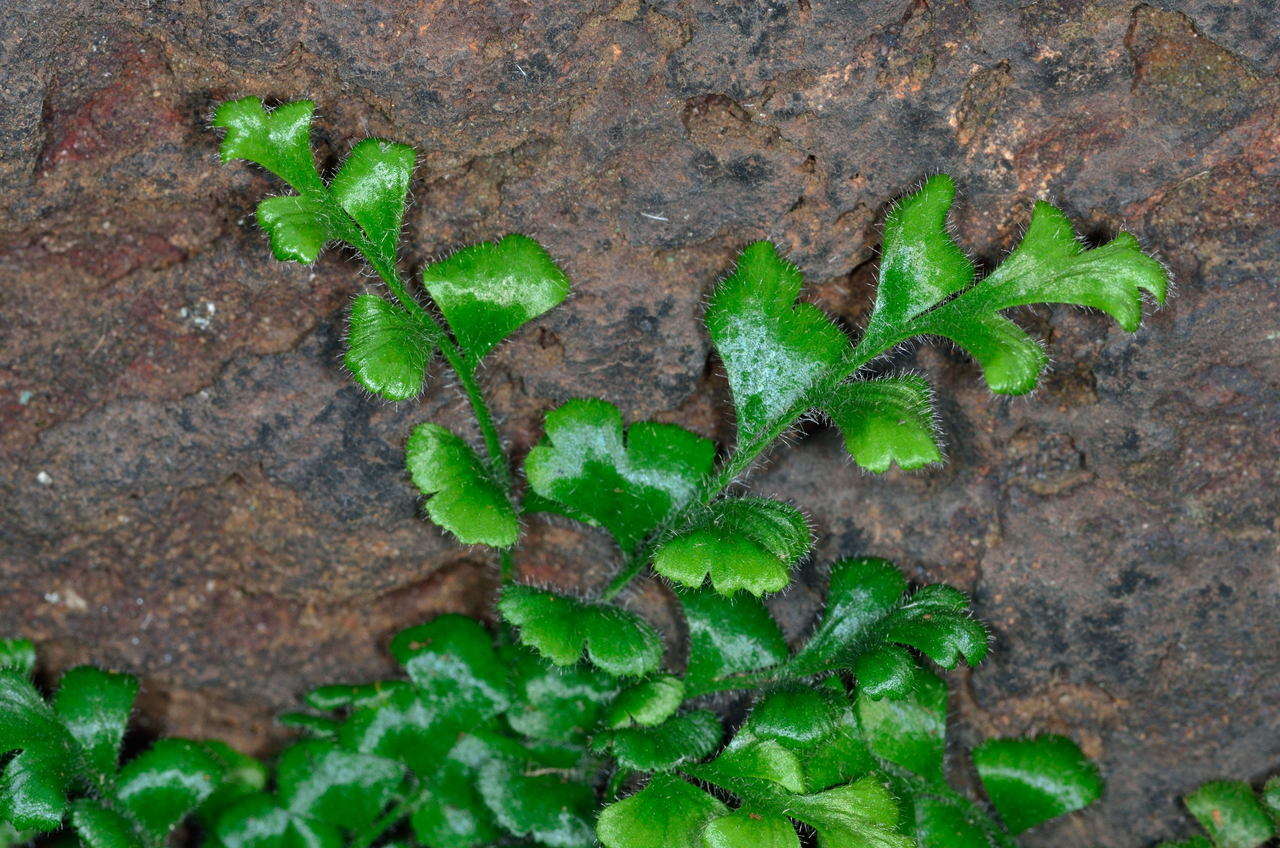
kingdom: Plantae
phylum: Tracheophyta
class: Polypodiopsida
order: Polypodiales
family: Aspleniaceae
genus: Asplenium
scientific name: Asplenium subglandulosum
